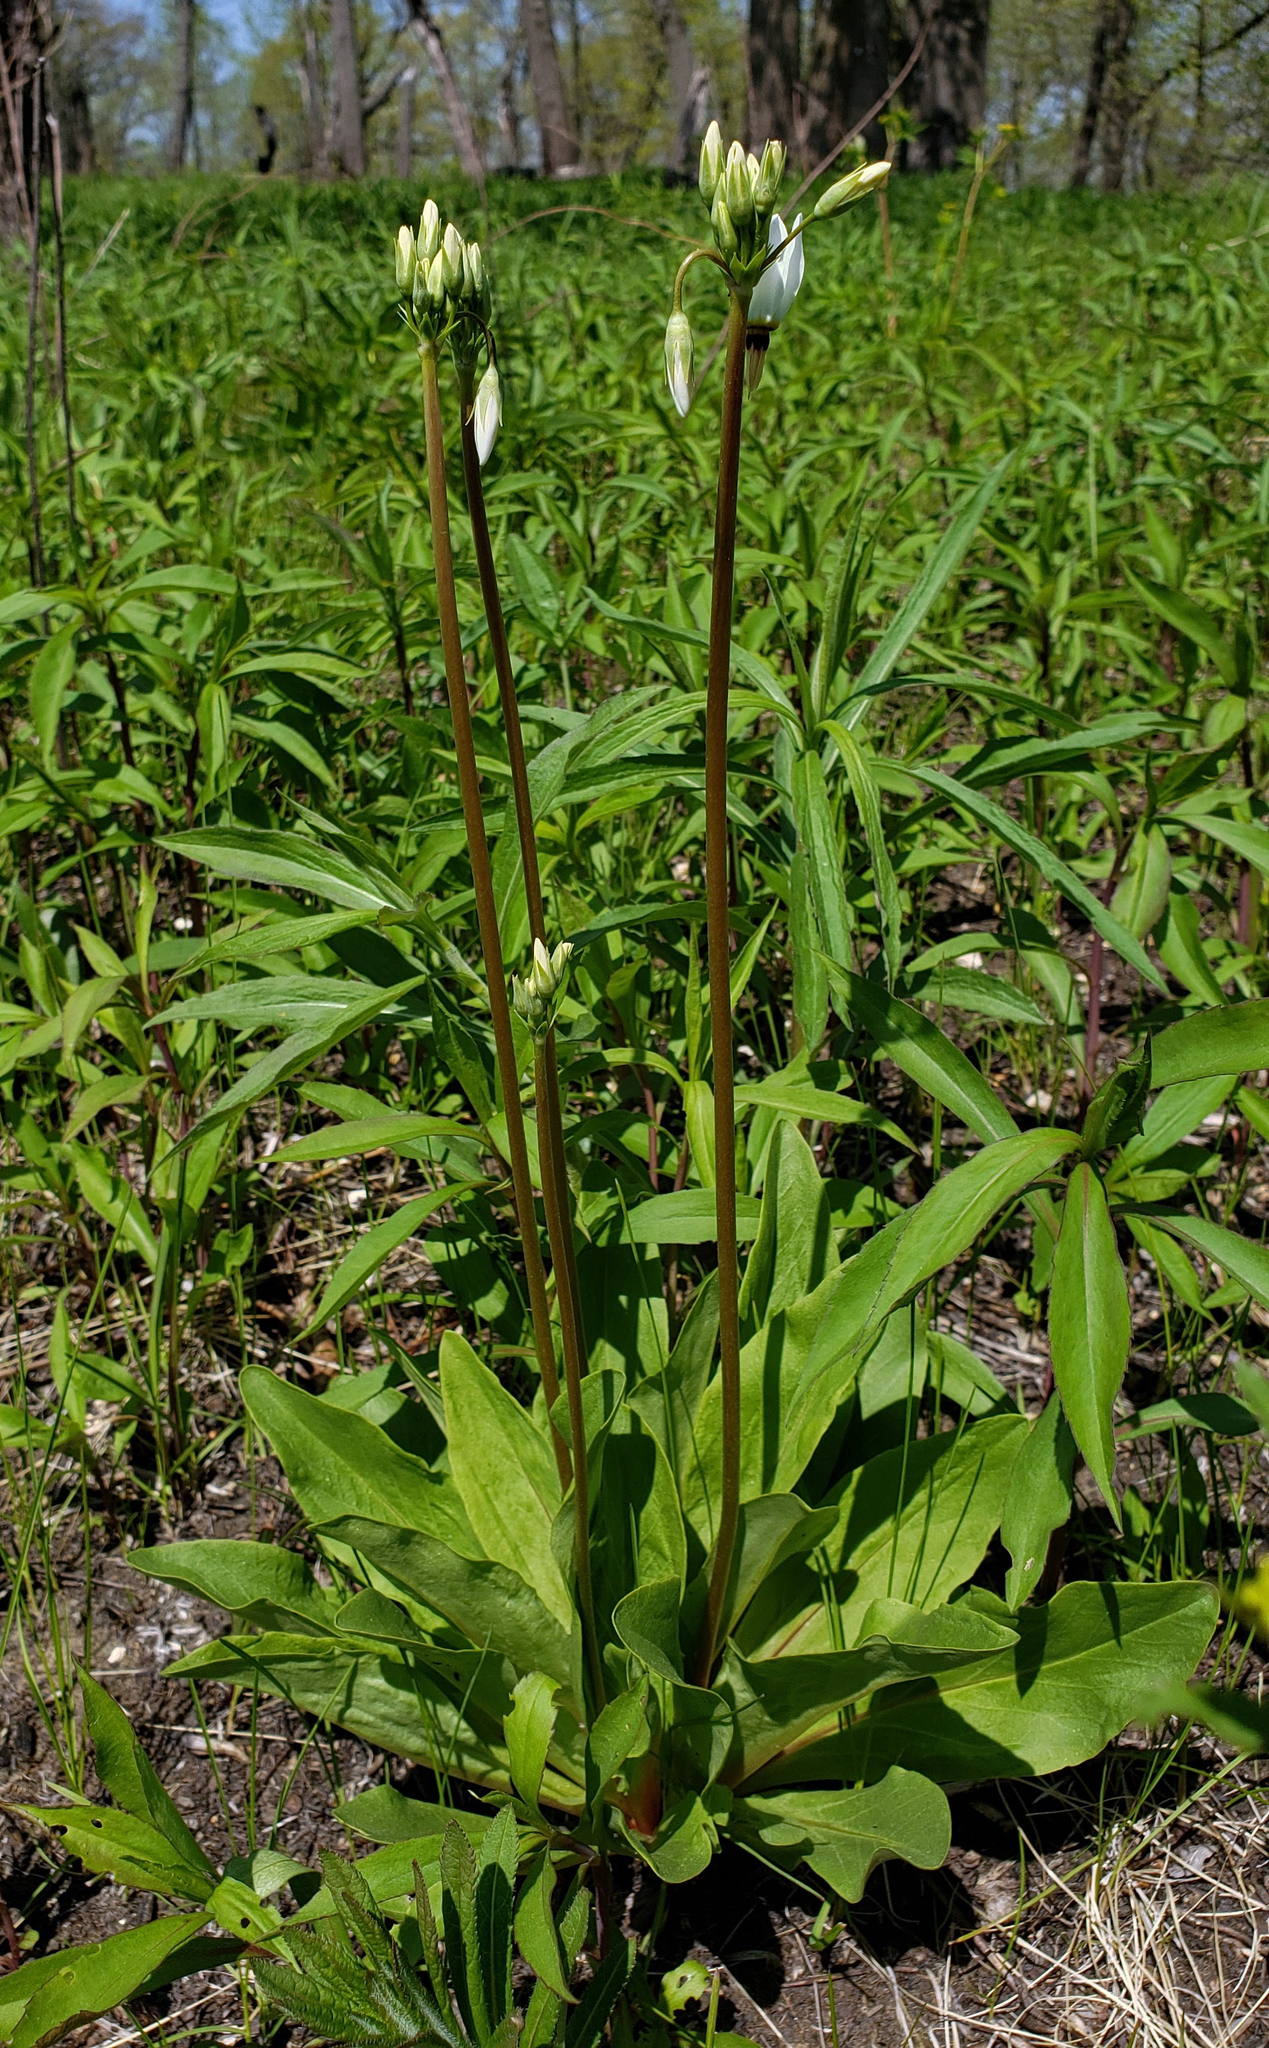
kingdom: Plantae
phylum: Tracheophyta
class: Magnoliopsida
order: Ericales
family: Primulaceae
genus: Dodecatheon
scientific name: Dodecatheon meadia
